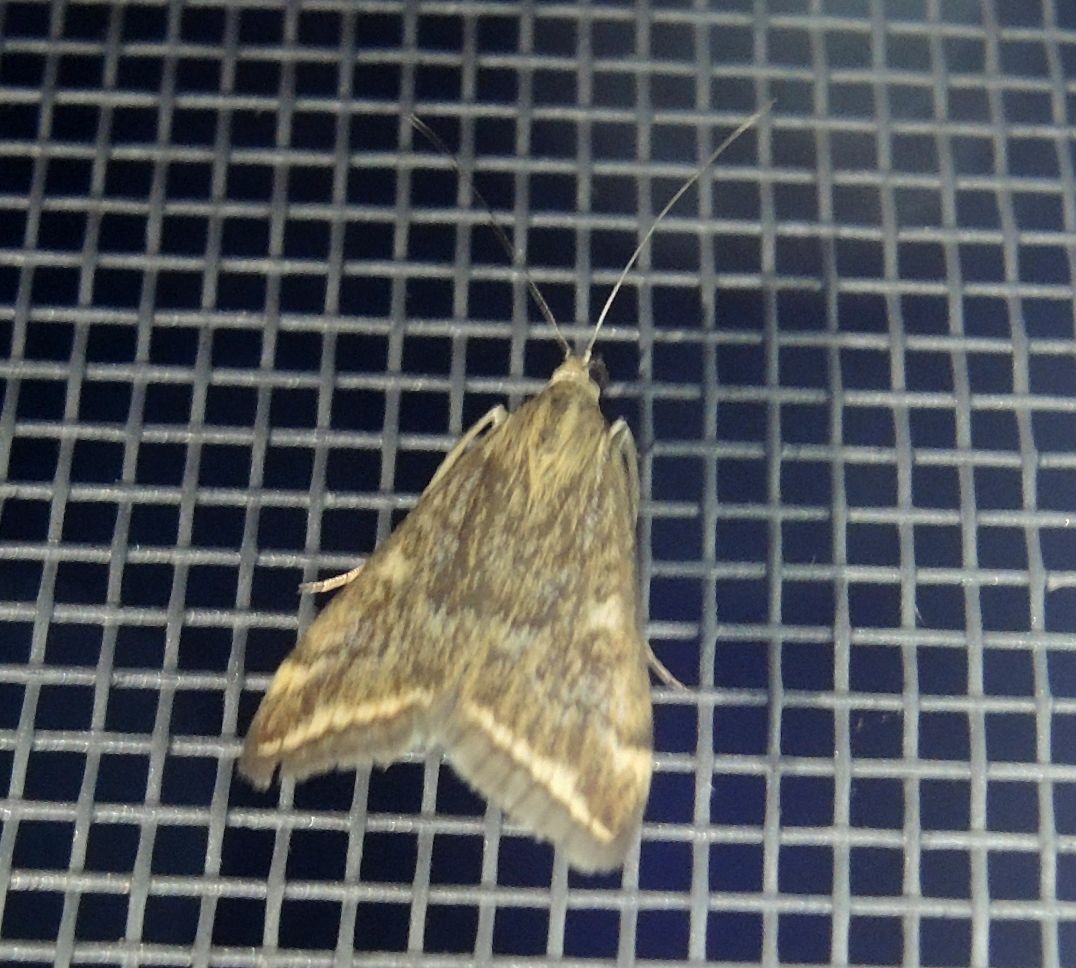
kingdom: Animalia
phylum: Arthropoda
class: Insecta
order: Lepidoptera
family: Crambidae
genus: Loxostege
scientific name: Loxostege sticticalis
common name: Crambid moth
